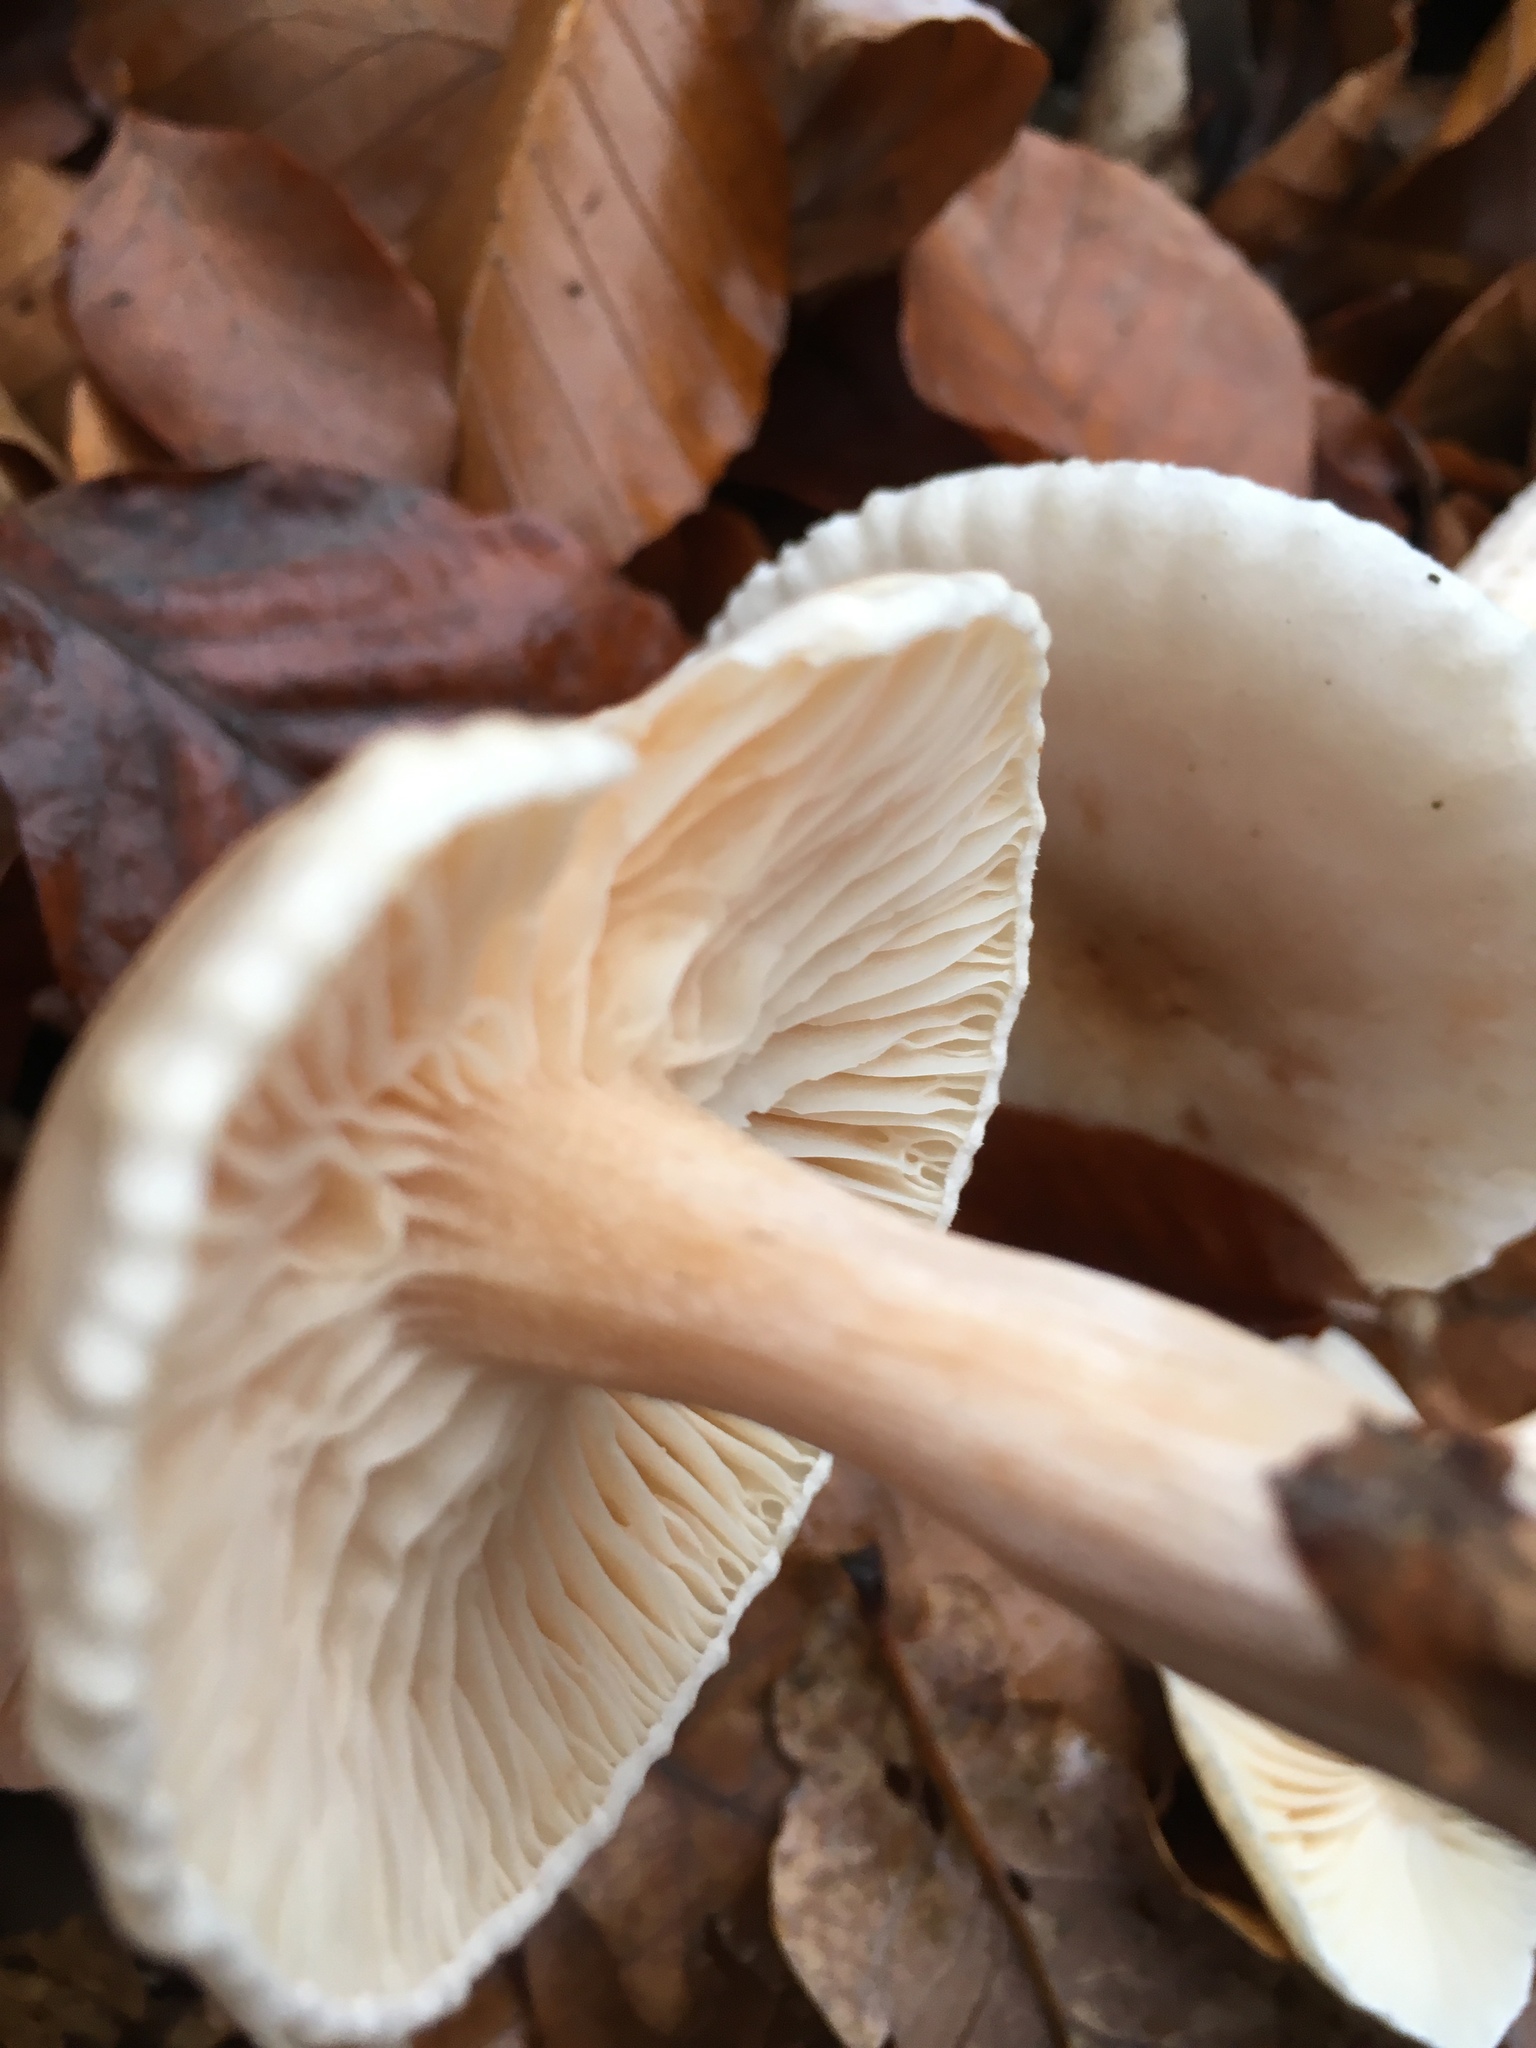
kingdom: Fungi
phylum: Basidiomycota
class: Agaricomycetes
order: Agaricales
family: Hygrophoraceae
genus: Hygrophorus
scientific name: Hygrophorus eburneus
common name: Ivory wax-cap
